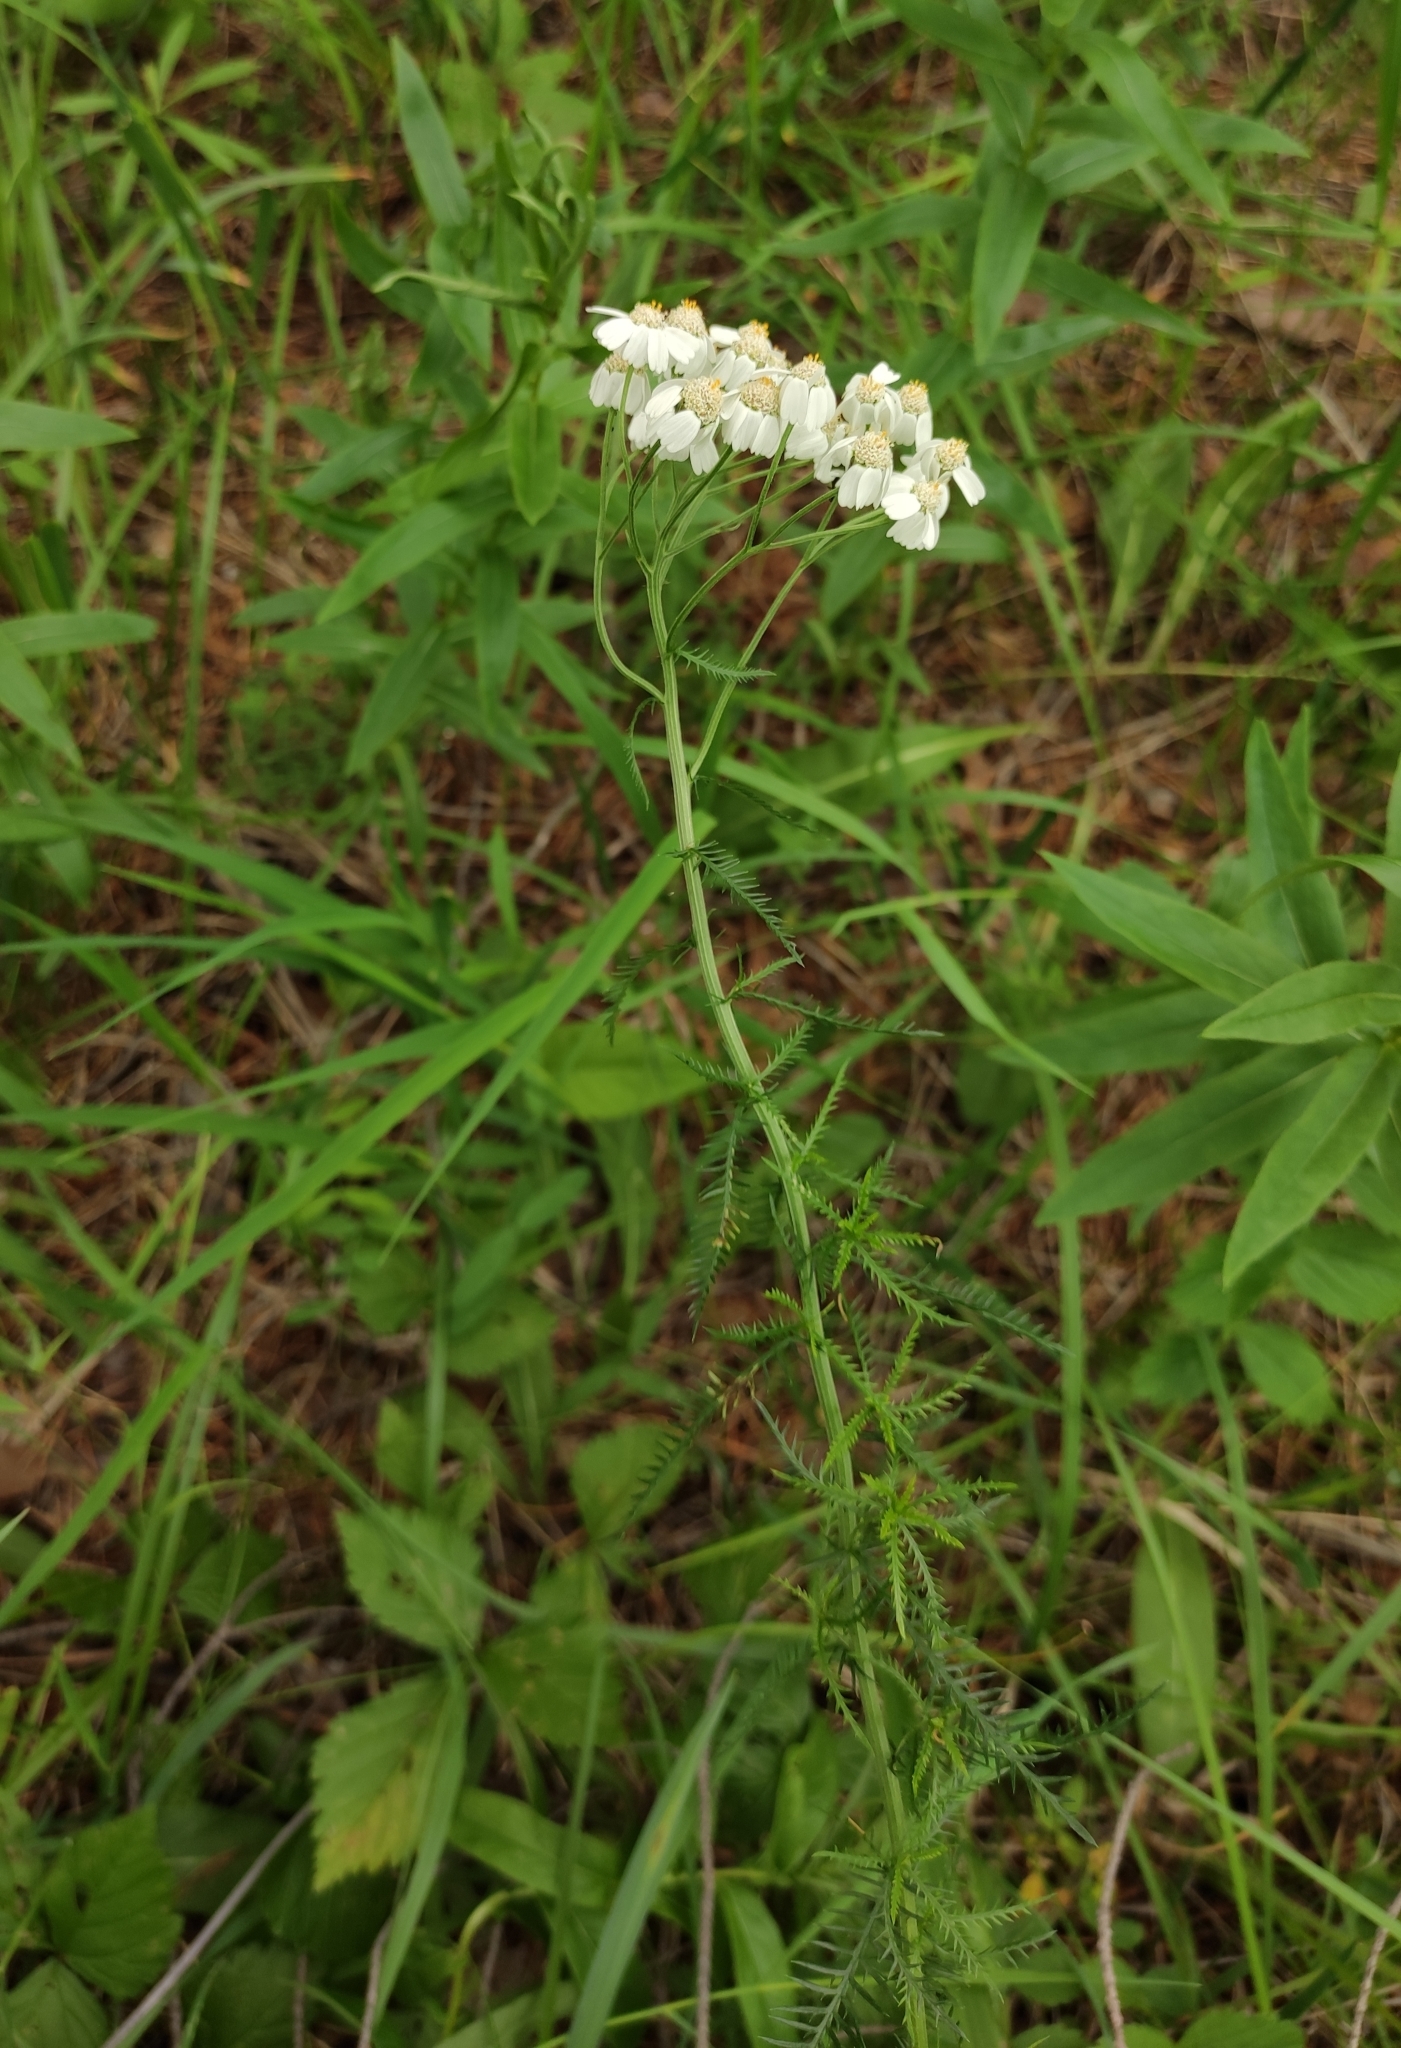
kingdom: Plantae
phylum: Tracheophyta
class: Magnoliopsida
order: Asterales
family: Asteraceae
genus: Achillea
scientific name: Achillea impatiens
